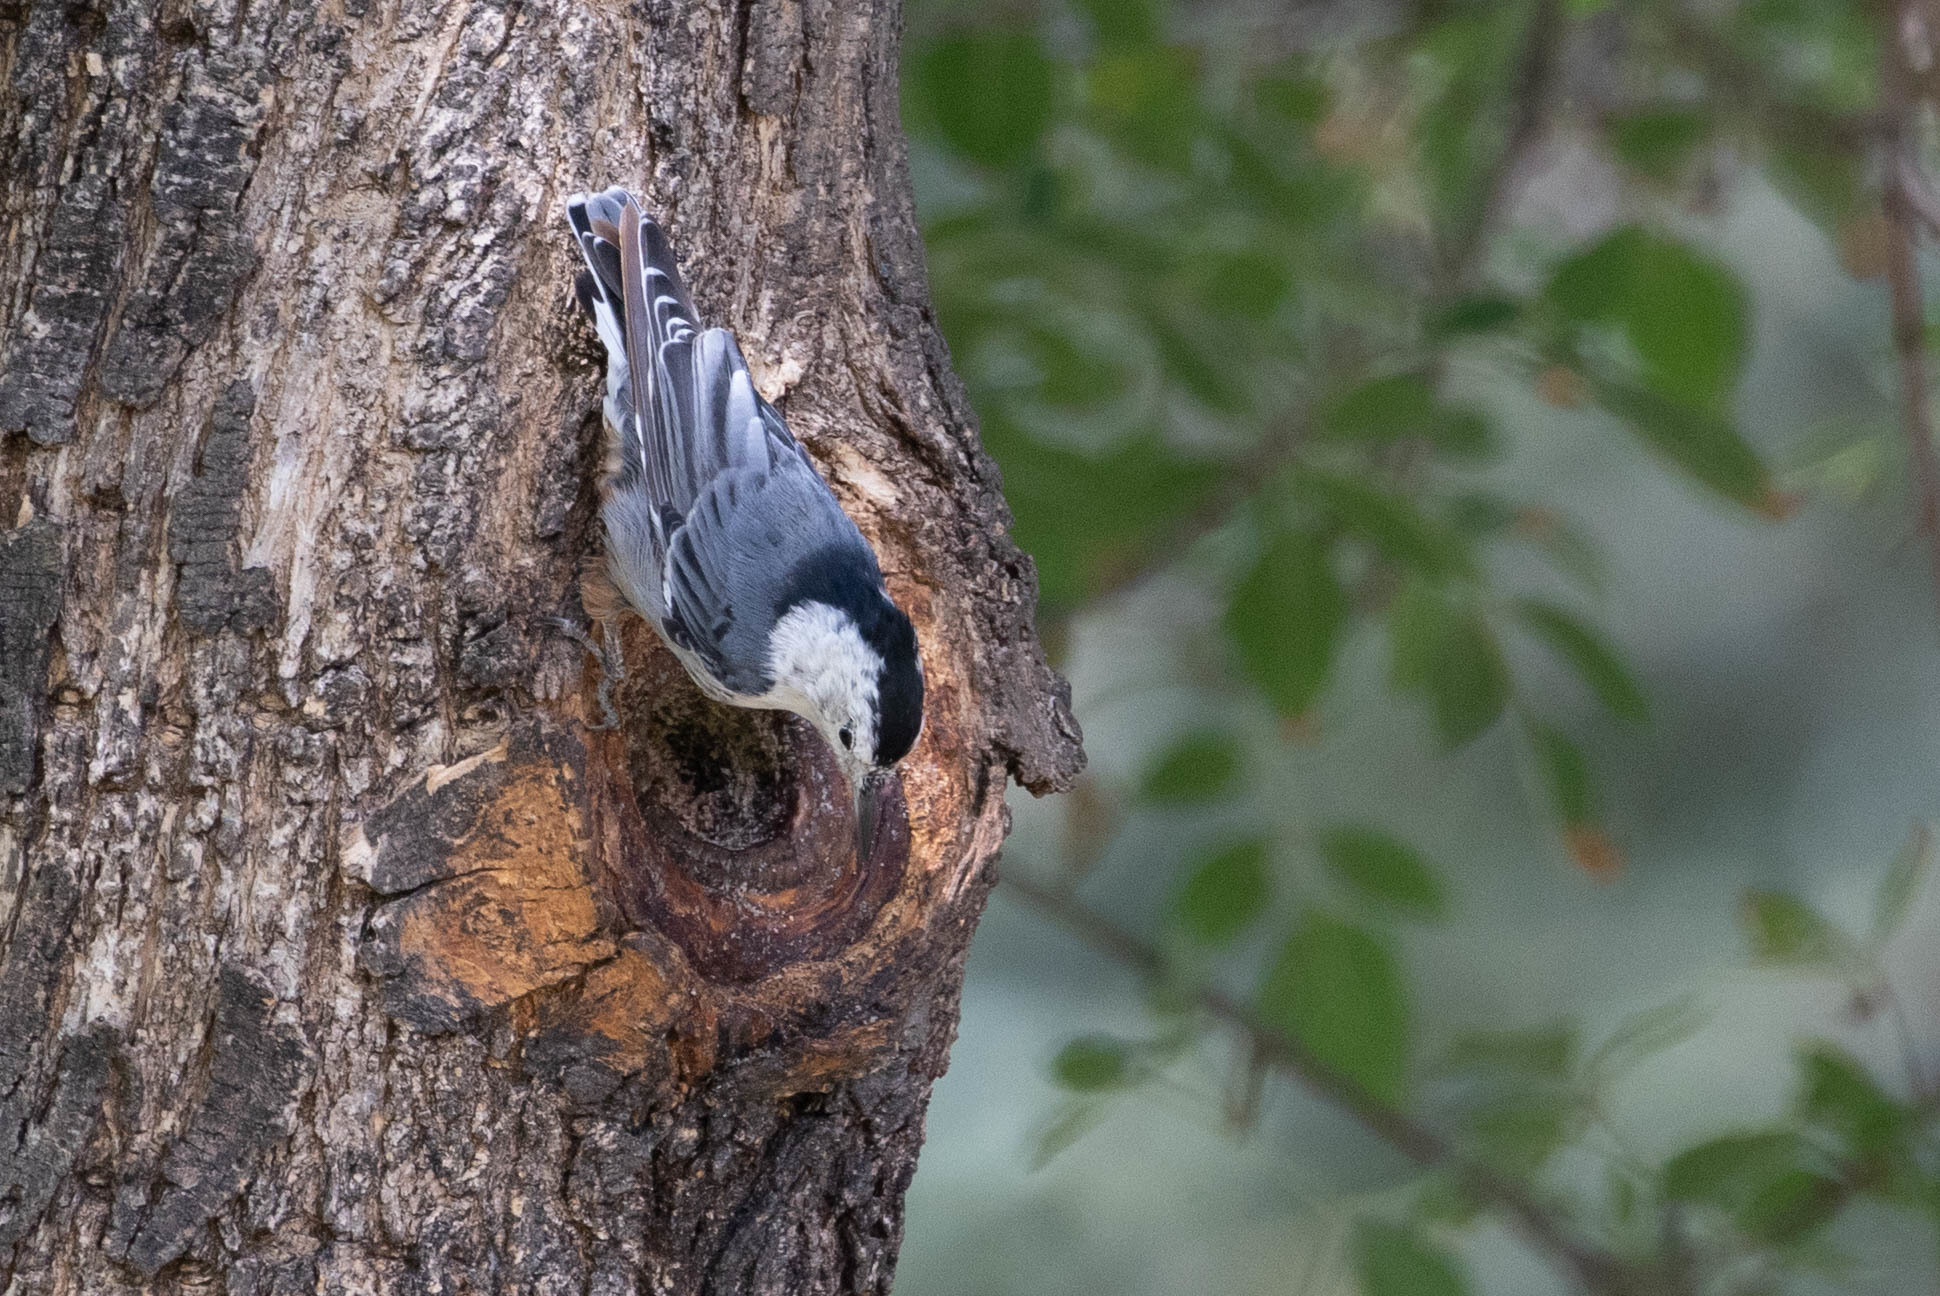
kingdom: Animalia
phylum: Chordata
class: Aves
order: Passeriformes
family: Sittidae
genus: Sitta
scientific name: Sitta carolinensis
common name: White-breasted nuthatch
